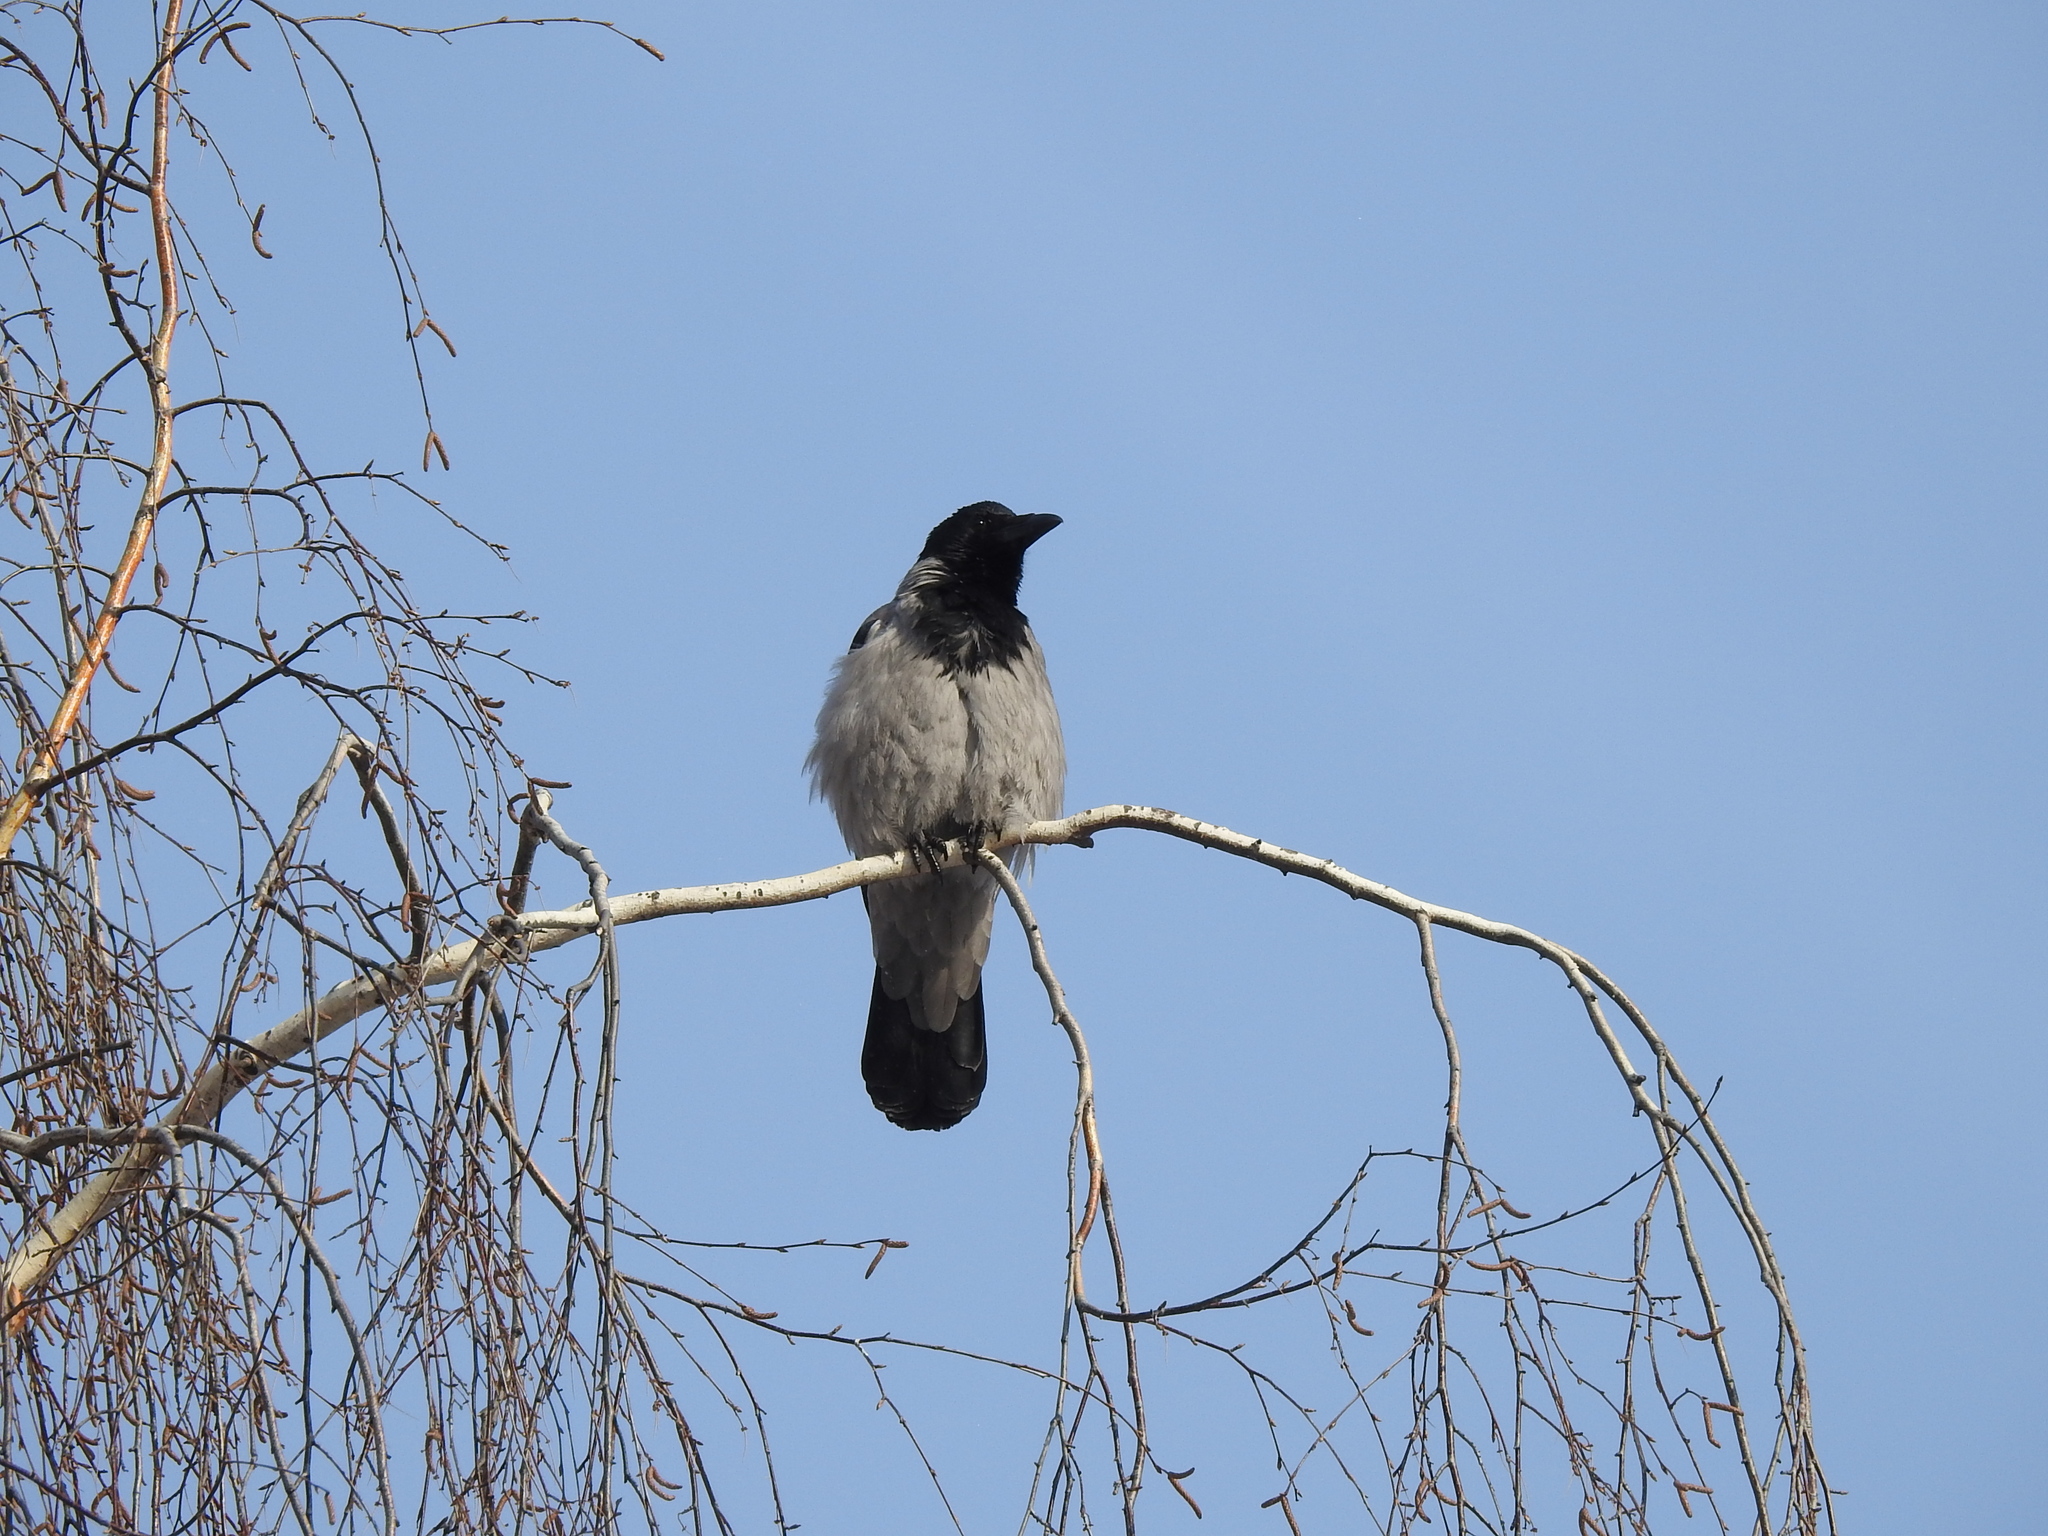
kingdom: Animalia
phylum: Chordata
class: Aves
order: Passeriformes
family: Corvidae
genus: Corvus
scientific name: Corvus cornix
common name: Hooded crow
